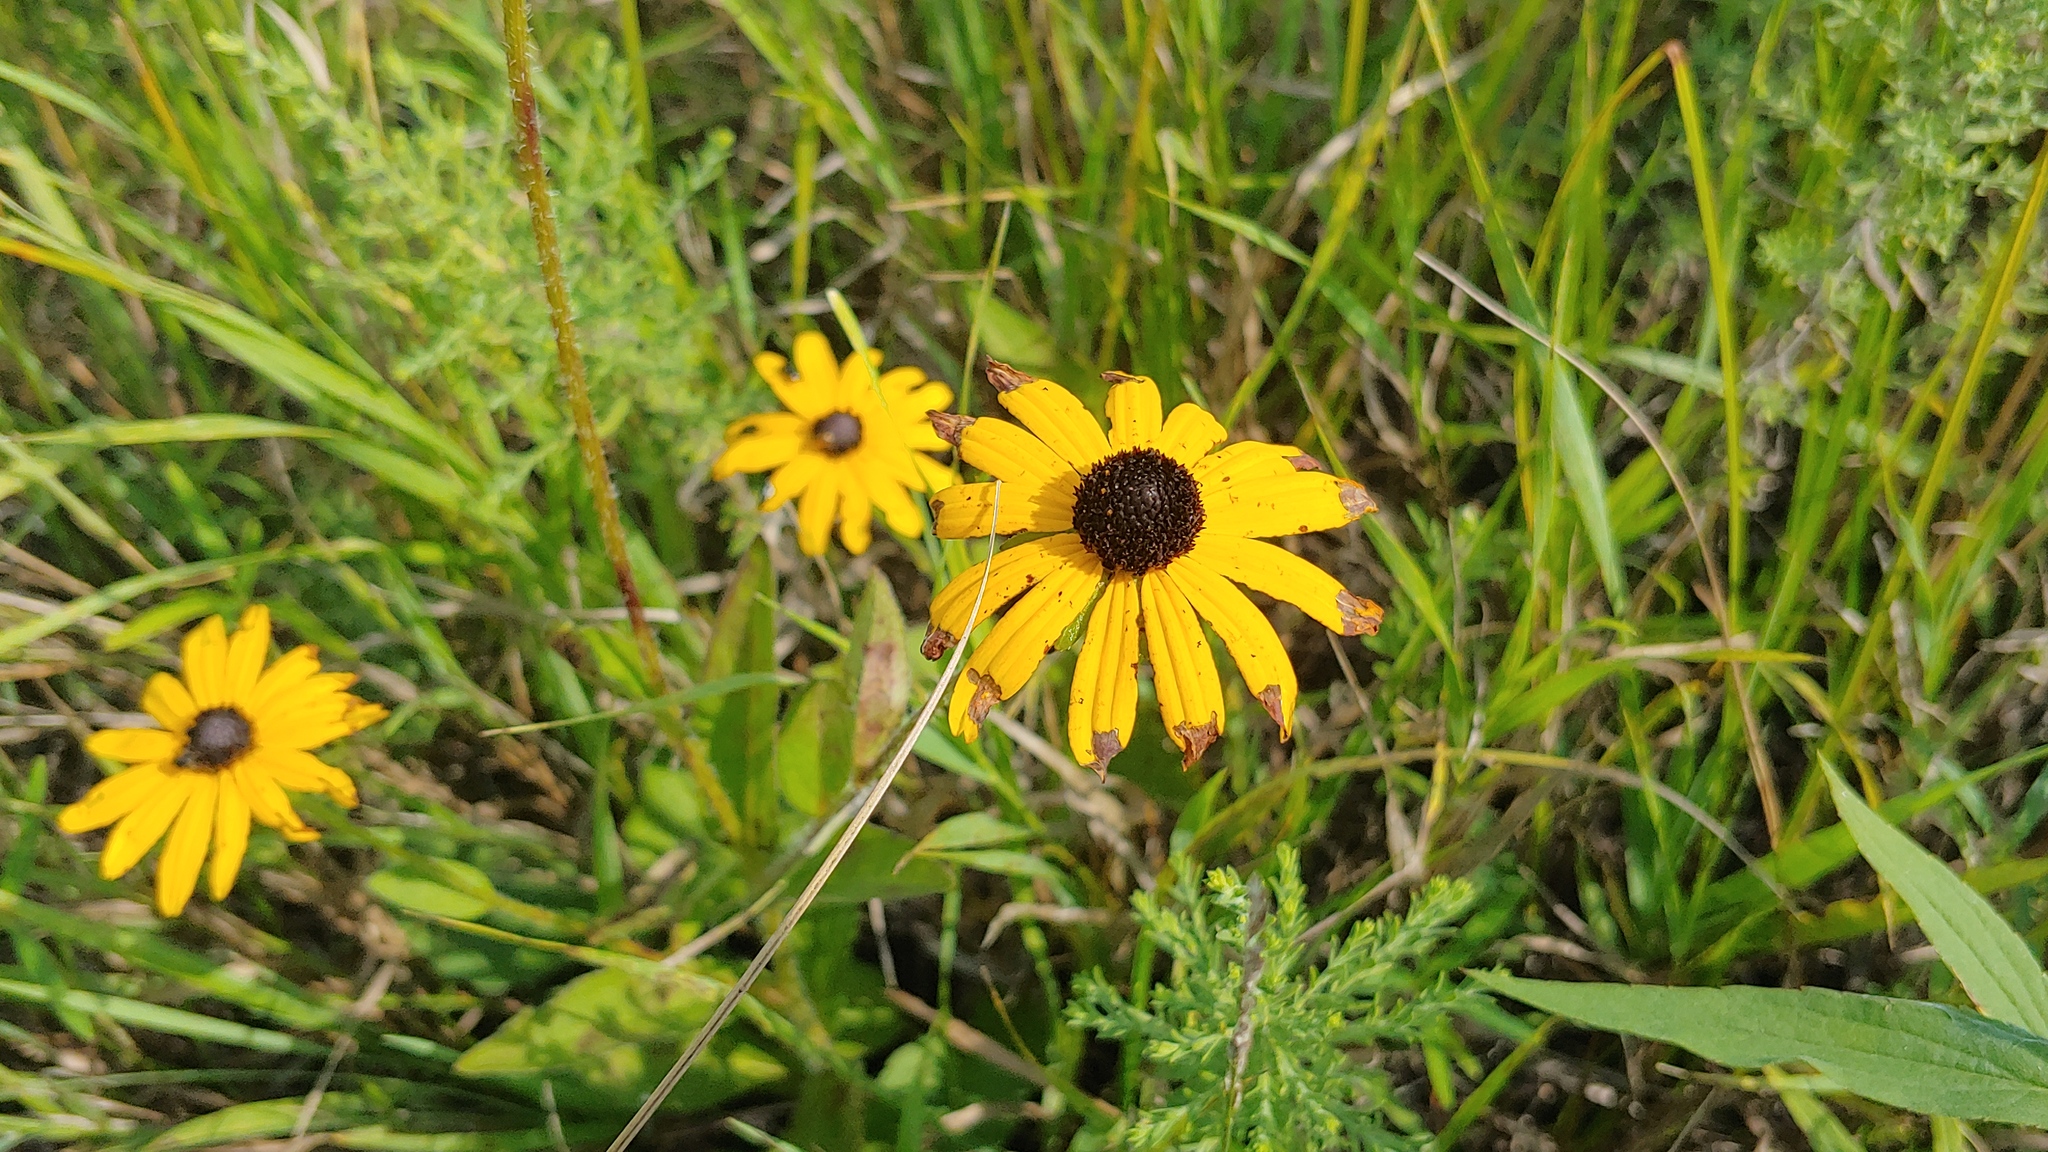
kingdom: Plantae
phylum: Tracheophyta
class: Magnoliopsida
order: Asterales
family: Asteraceae
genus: Rudbeckia
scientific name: Rudbeckia sullivantii
